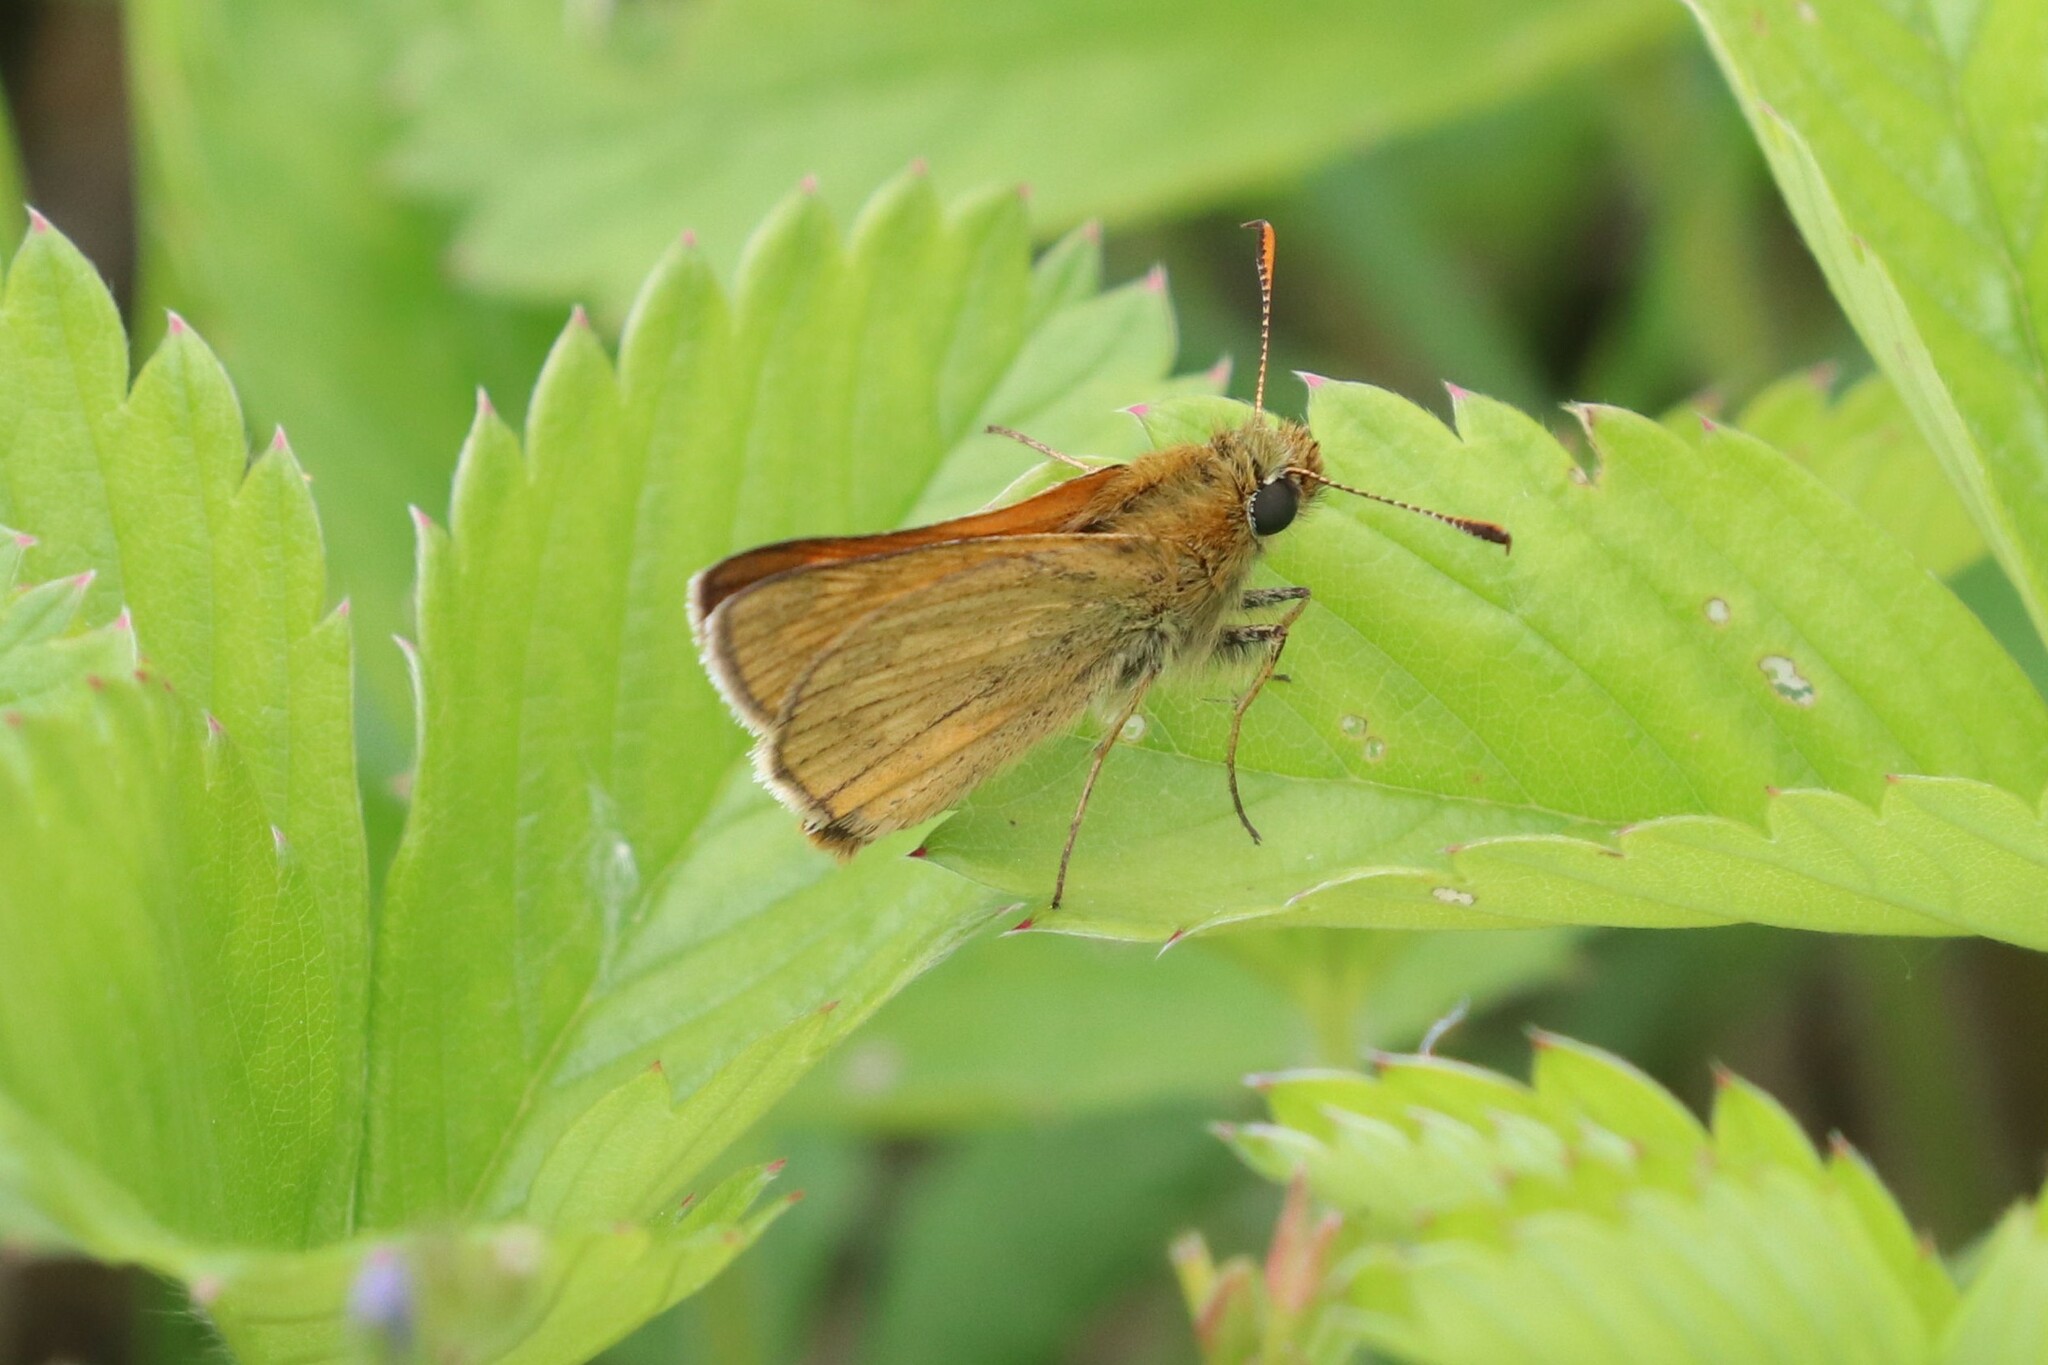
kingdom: Animalia
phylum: Arthropoda
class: Insecta
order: Lepidoptera
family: Hesperiidae
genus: Ochlodes
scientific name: Ochlodes venata
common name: Large skipper
